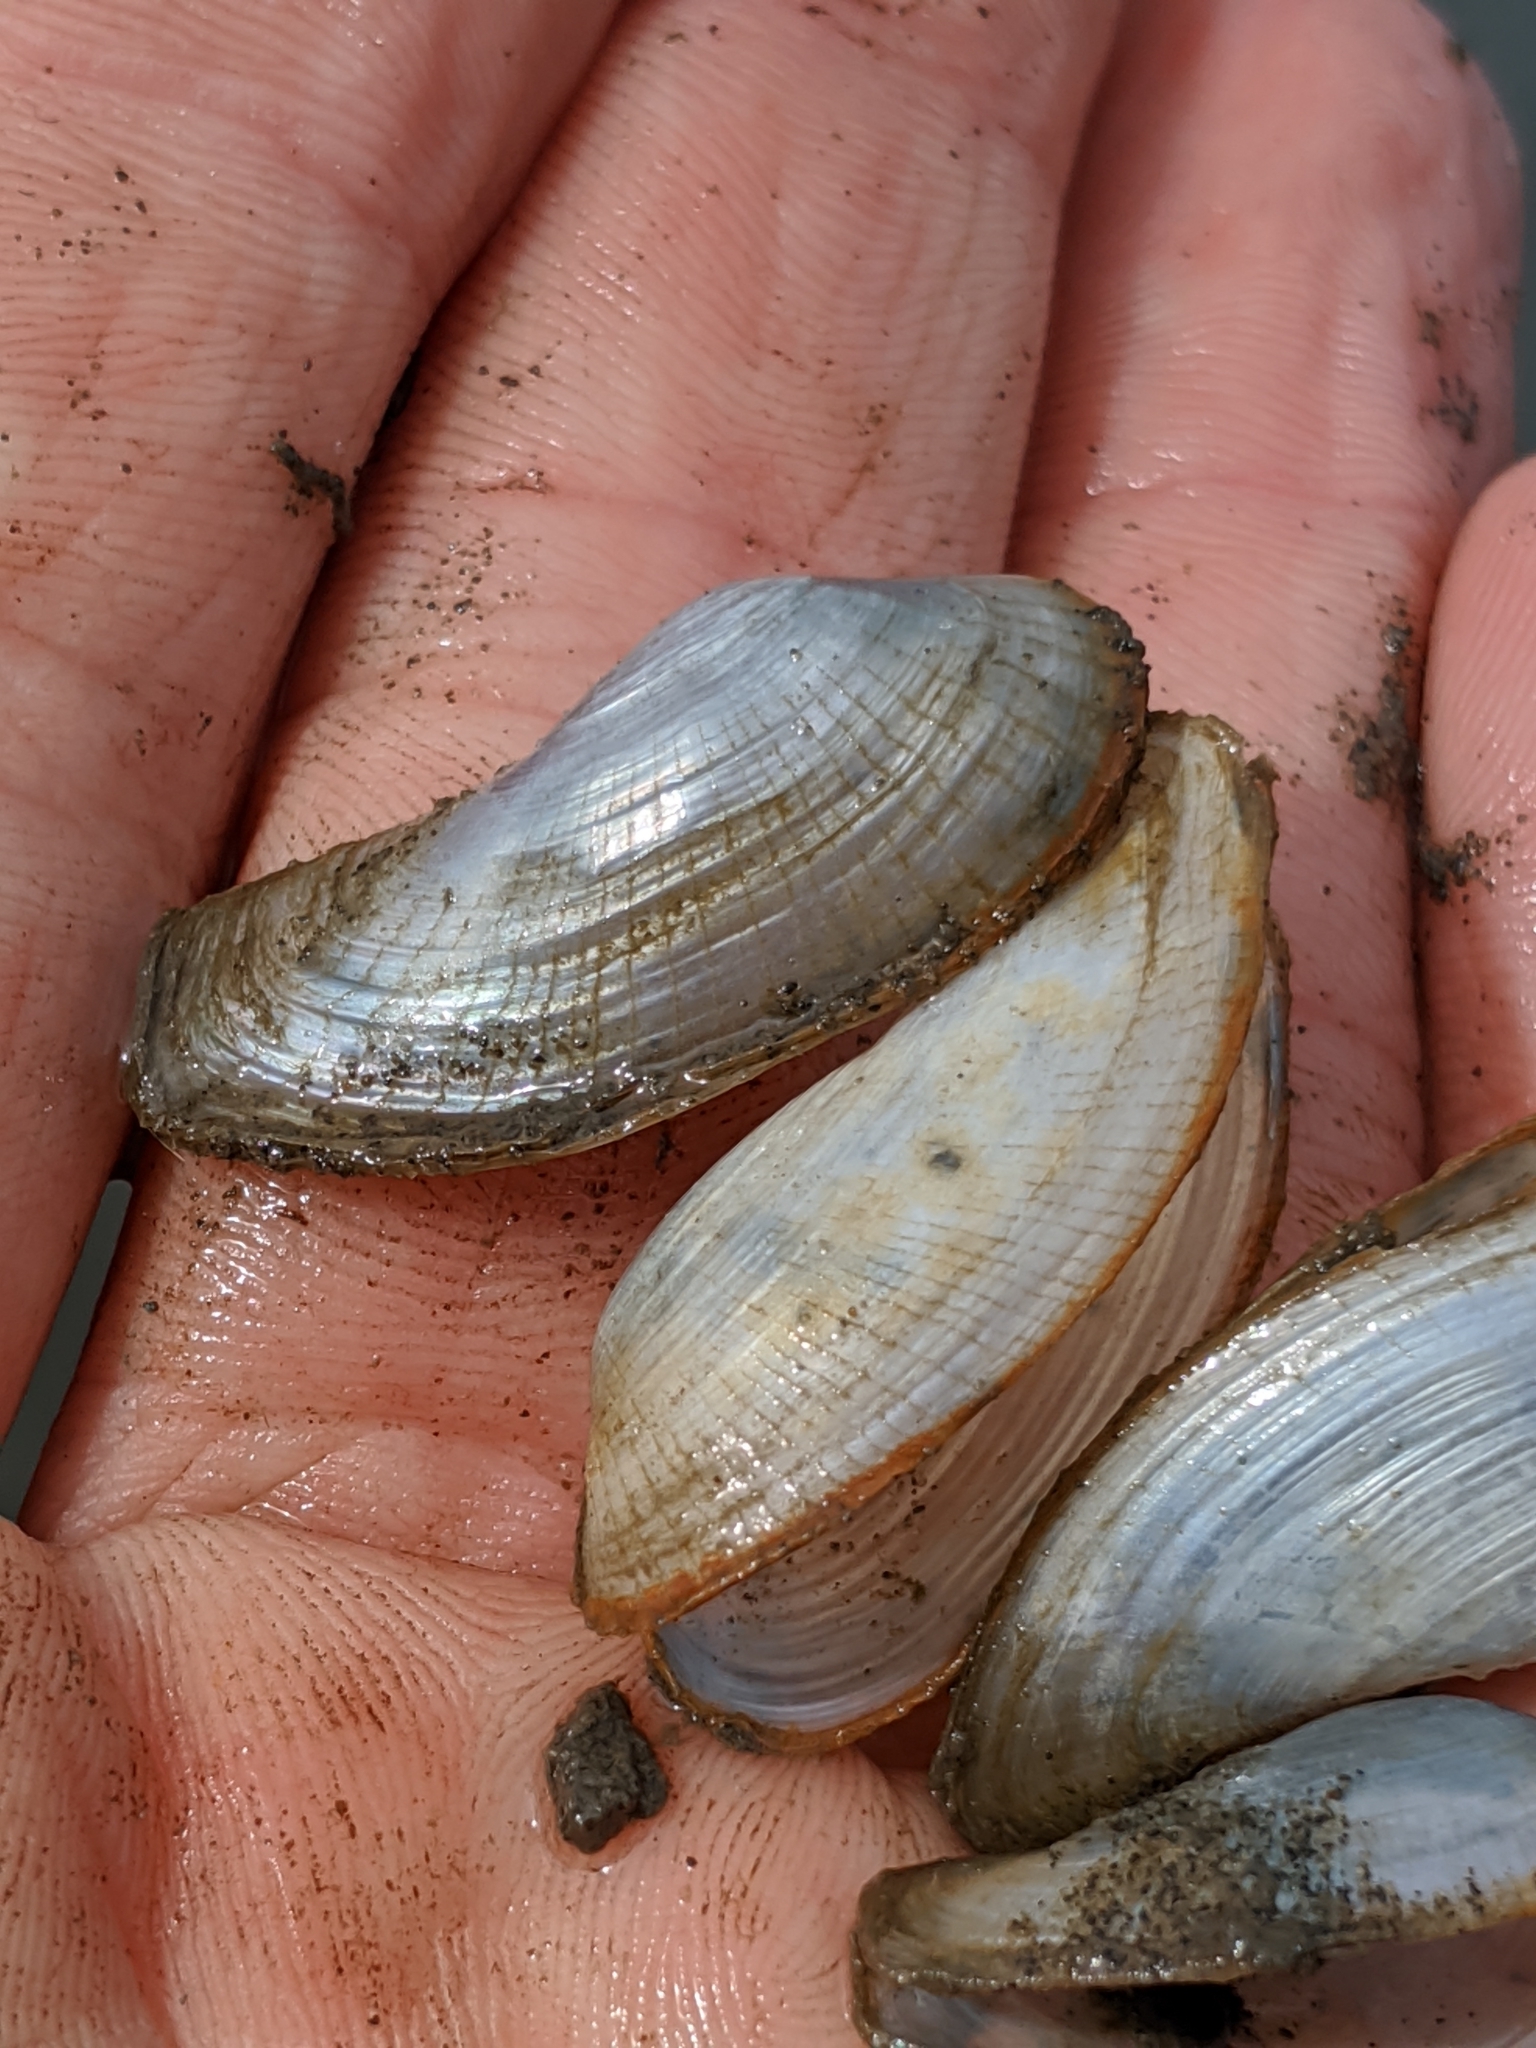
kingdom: Animalia
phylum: Mollusca
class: Bivalvia
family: Lyonsiidae
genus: Lyonsia
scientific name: Lyonsia californica
